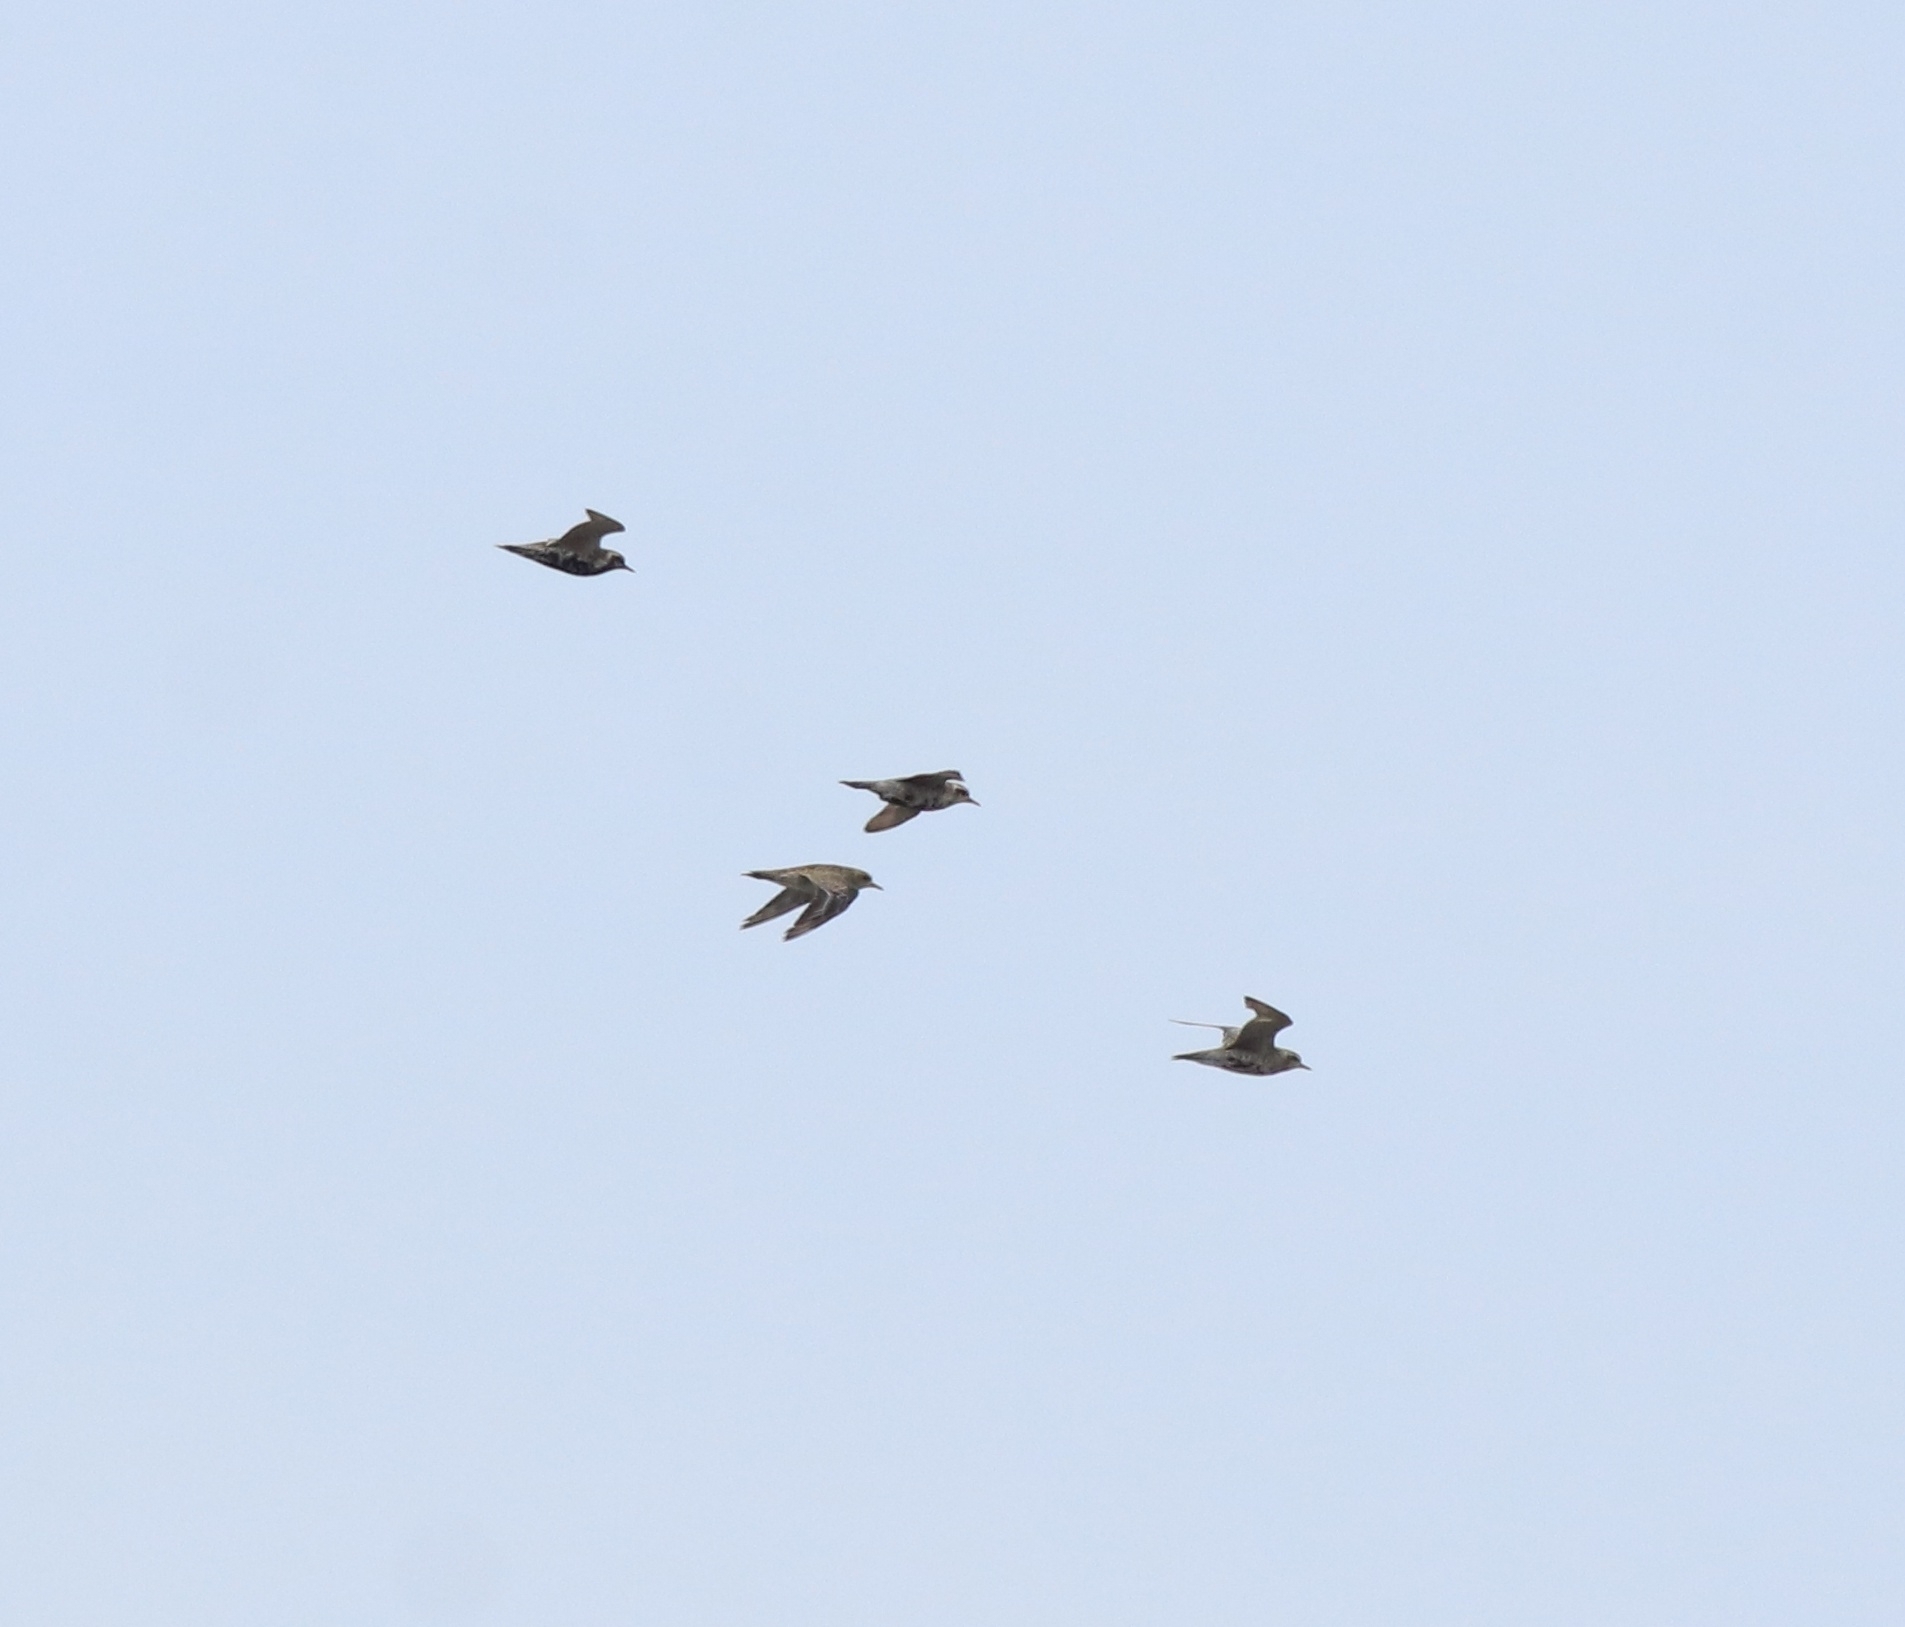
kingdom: Animalia
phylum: Chordata
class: Aves
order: Charadriiformes
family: Charadriidae
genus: Pluvialis
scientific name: Pluvialis fulva
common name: Pacific golden plover
